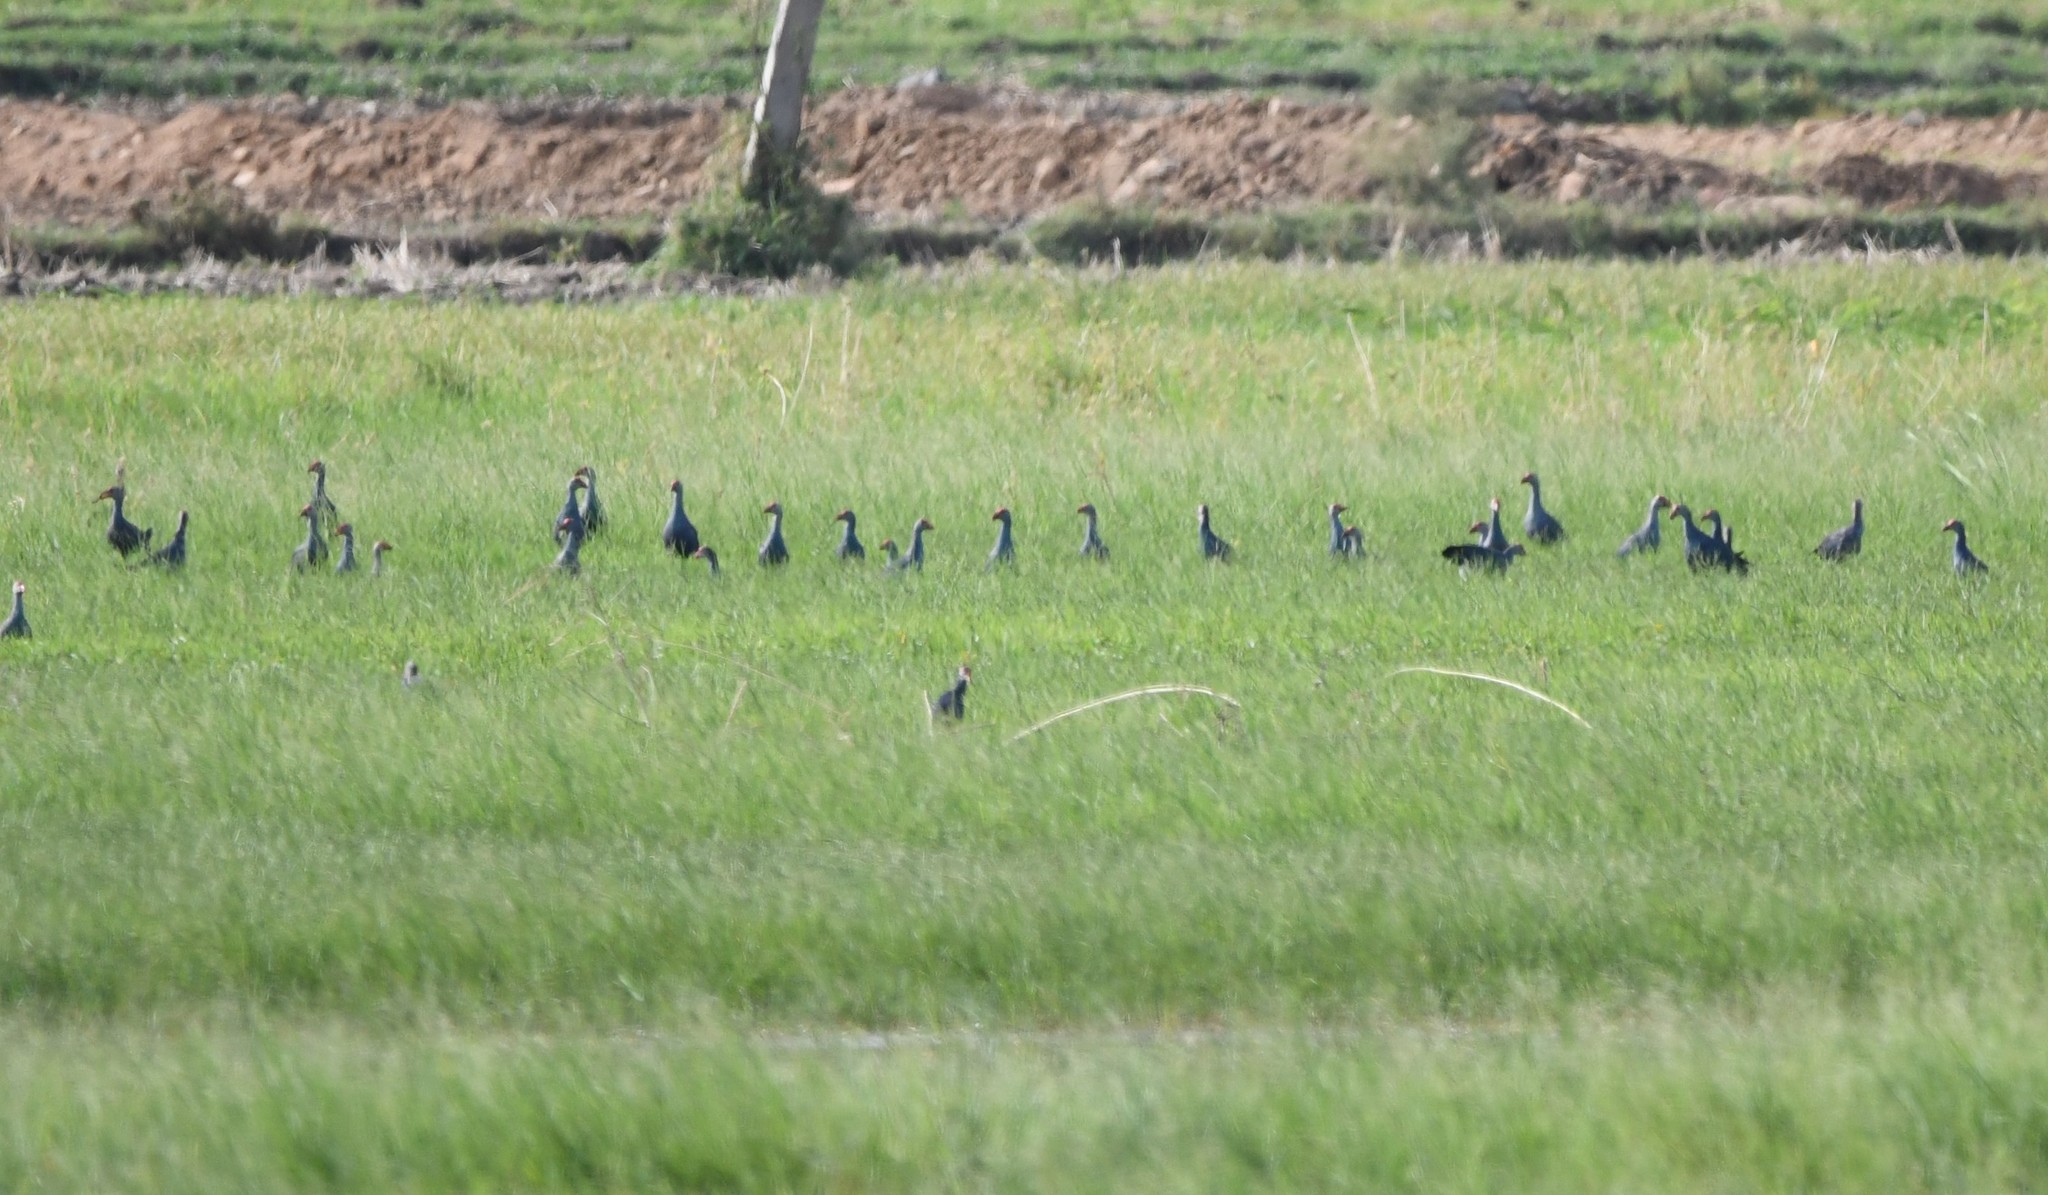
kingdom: Animalia
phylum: Chordata
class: Aves
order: Gruiformes
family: Rallidae
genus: Porphyrio
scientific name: Porphyrio porphyrio
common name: Purple swamphen
